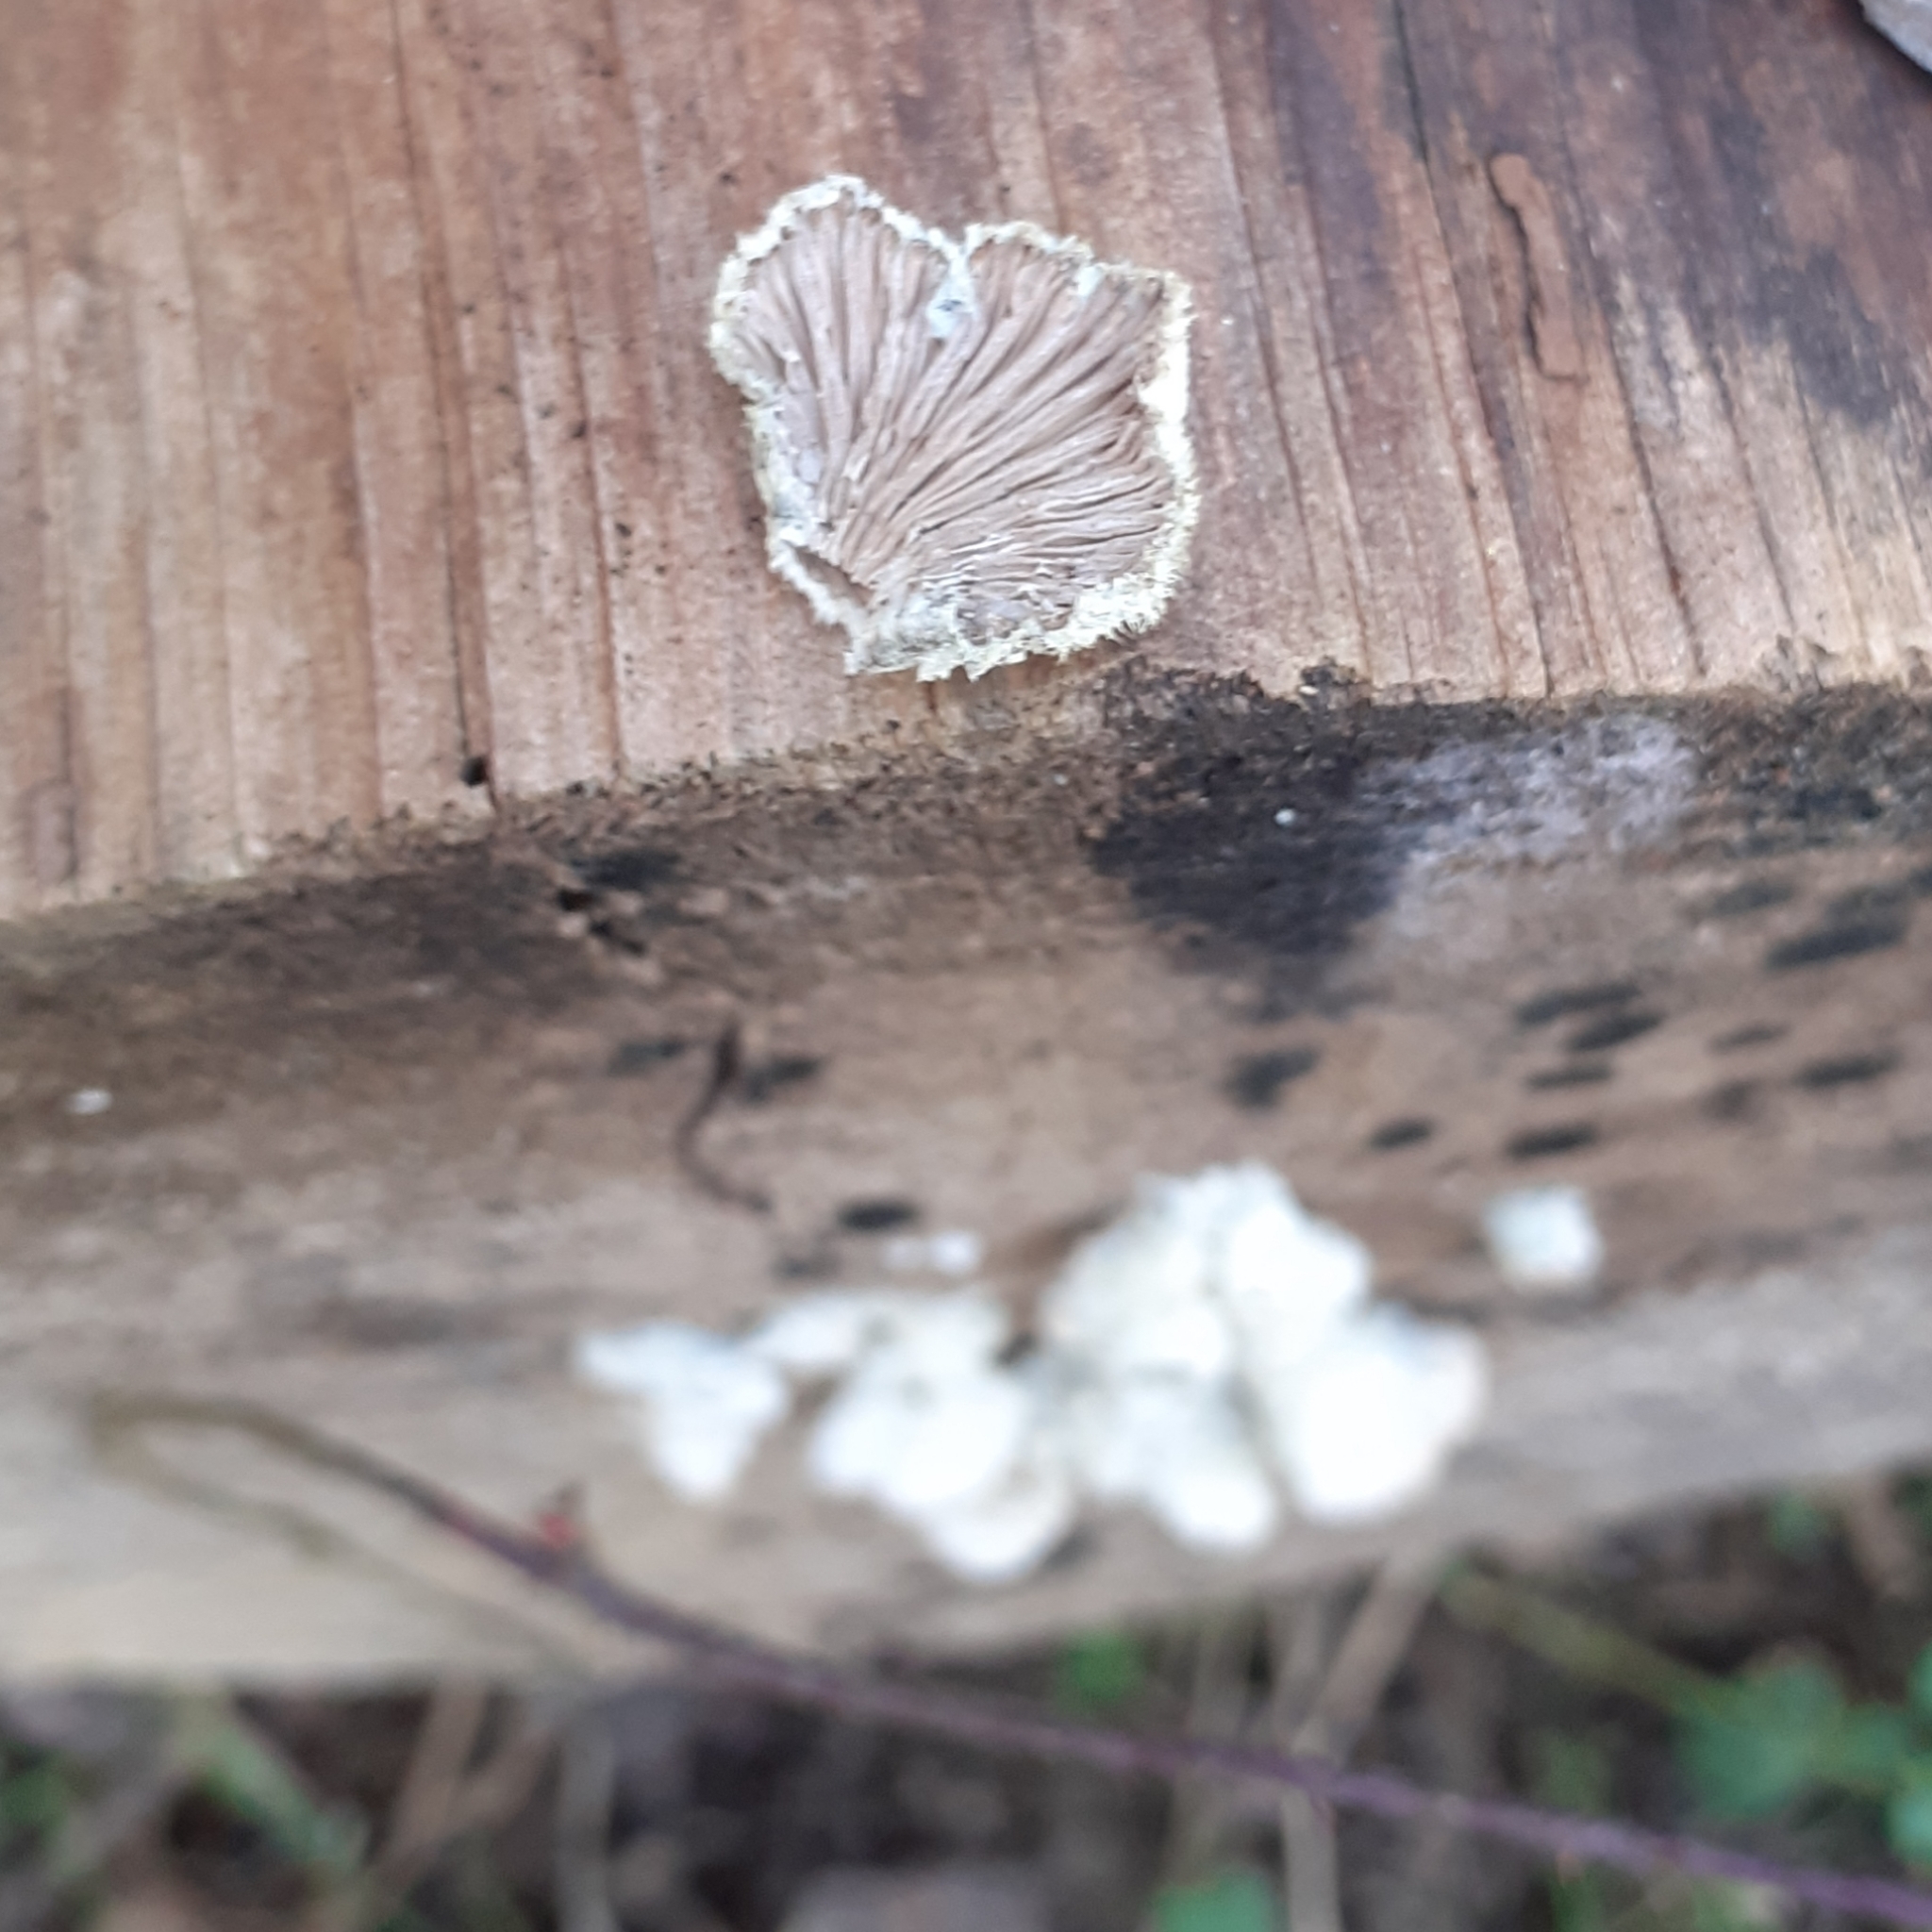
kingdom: Fungi
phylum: Basidiomycota
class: Agaricomycetes
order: Agaricales
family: Schizophyllaceae
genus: Schizophyllum
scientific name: Schizophyllum commune
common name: Common porecrust
